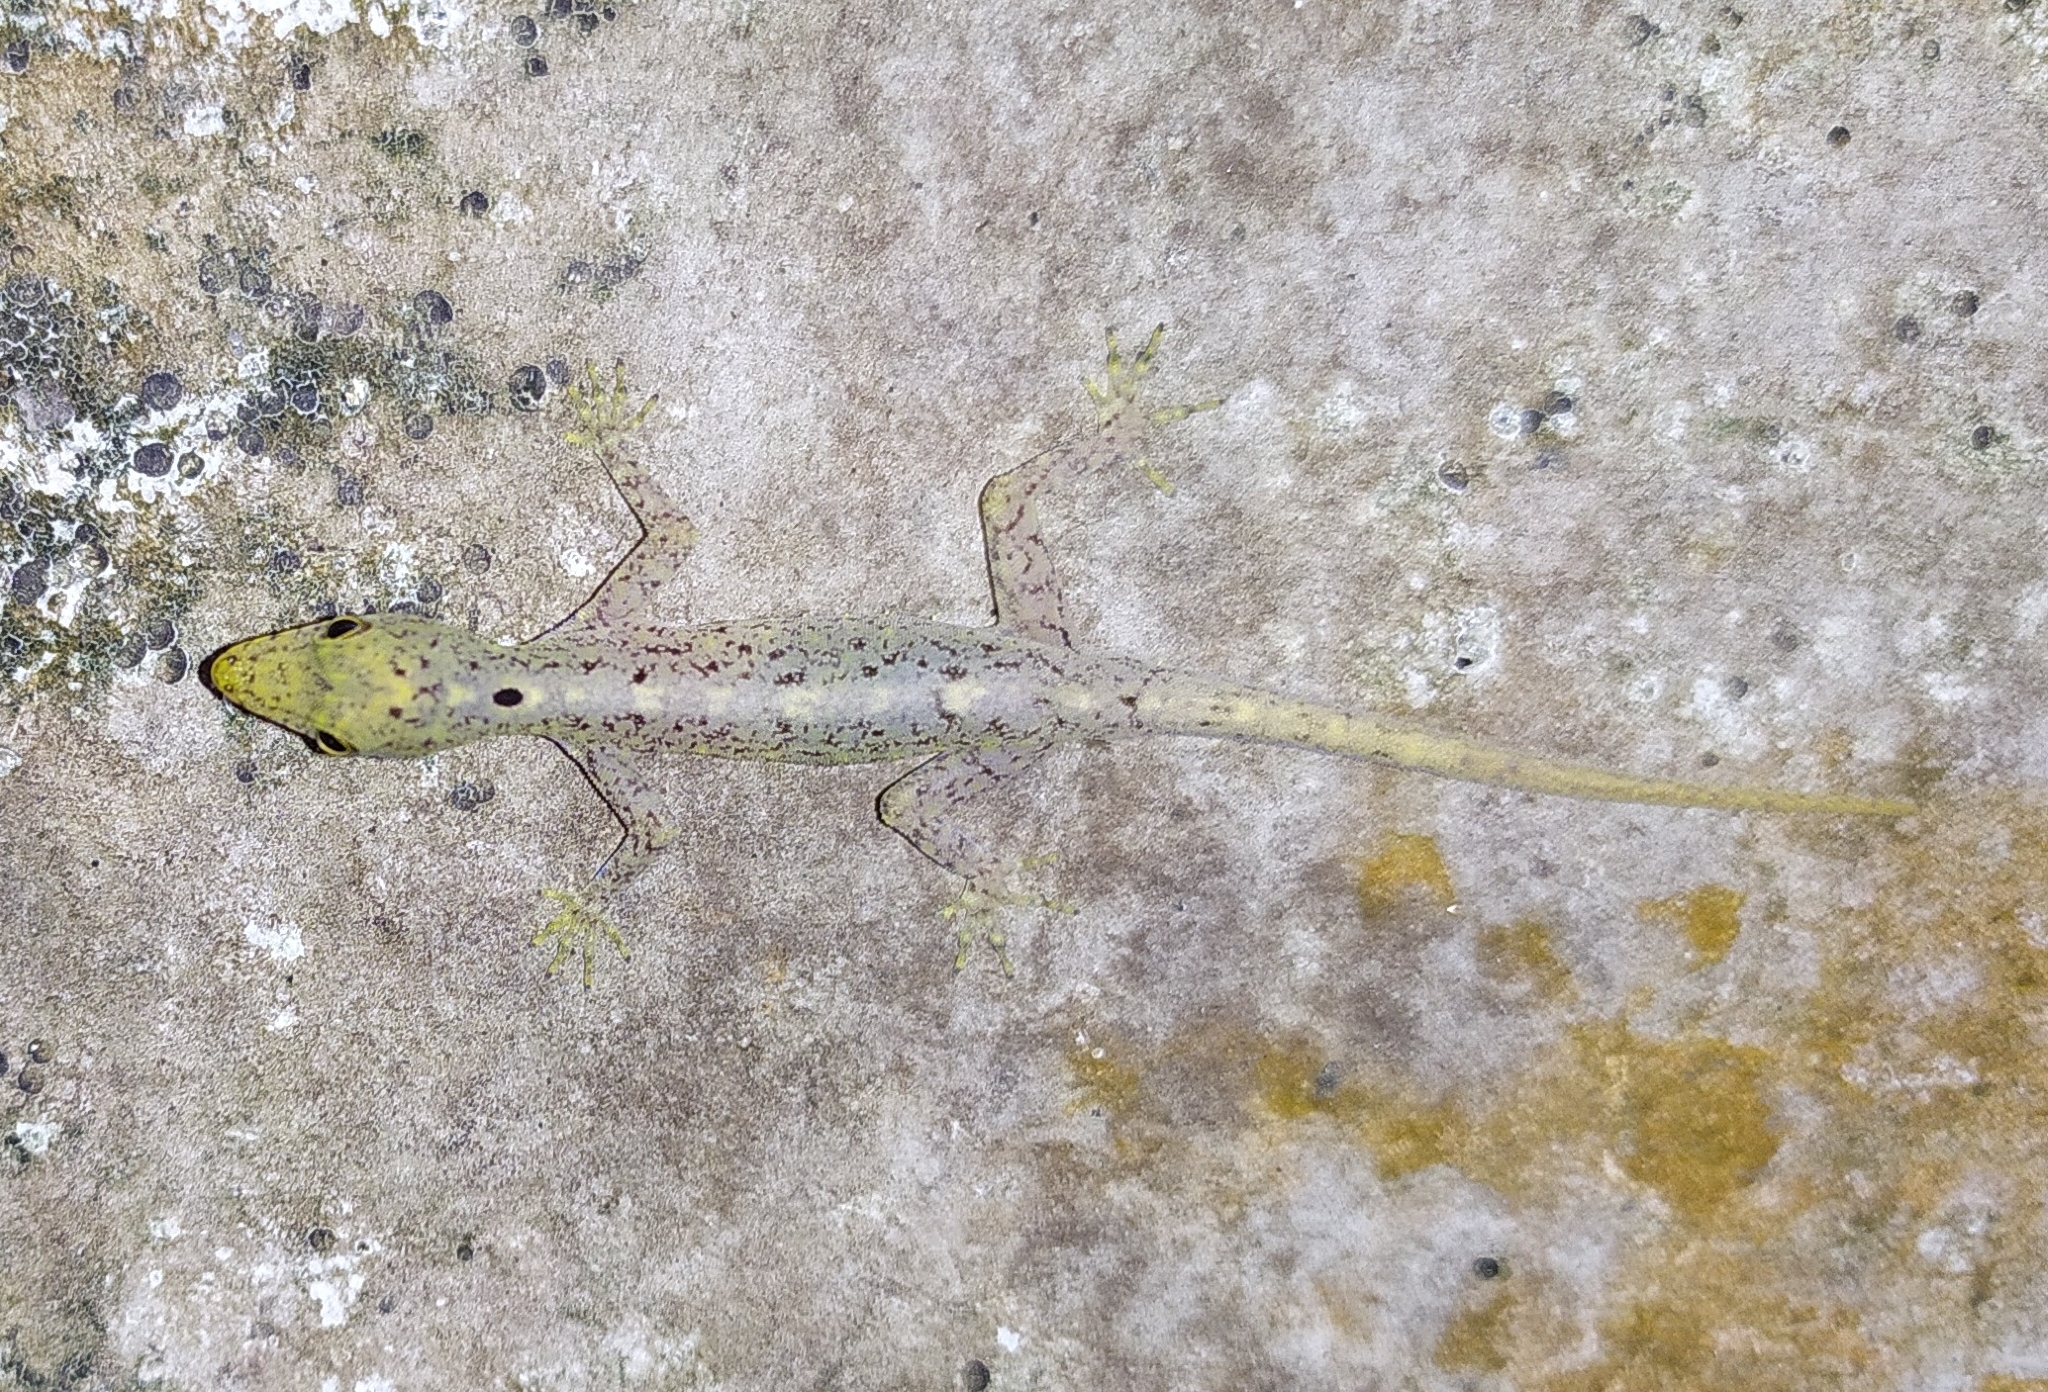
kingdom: Animalia
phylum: Chordata
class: Squamata
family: Gekkonidae
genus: Cnemaspis
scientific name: Cnemaspis littoralis
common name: Coastal day gecko
